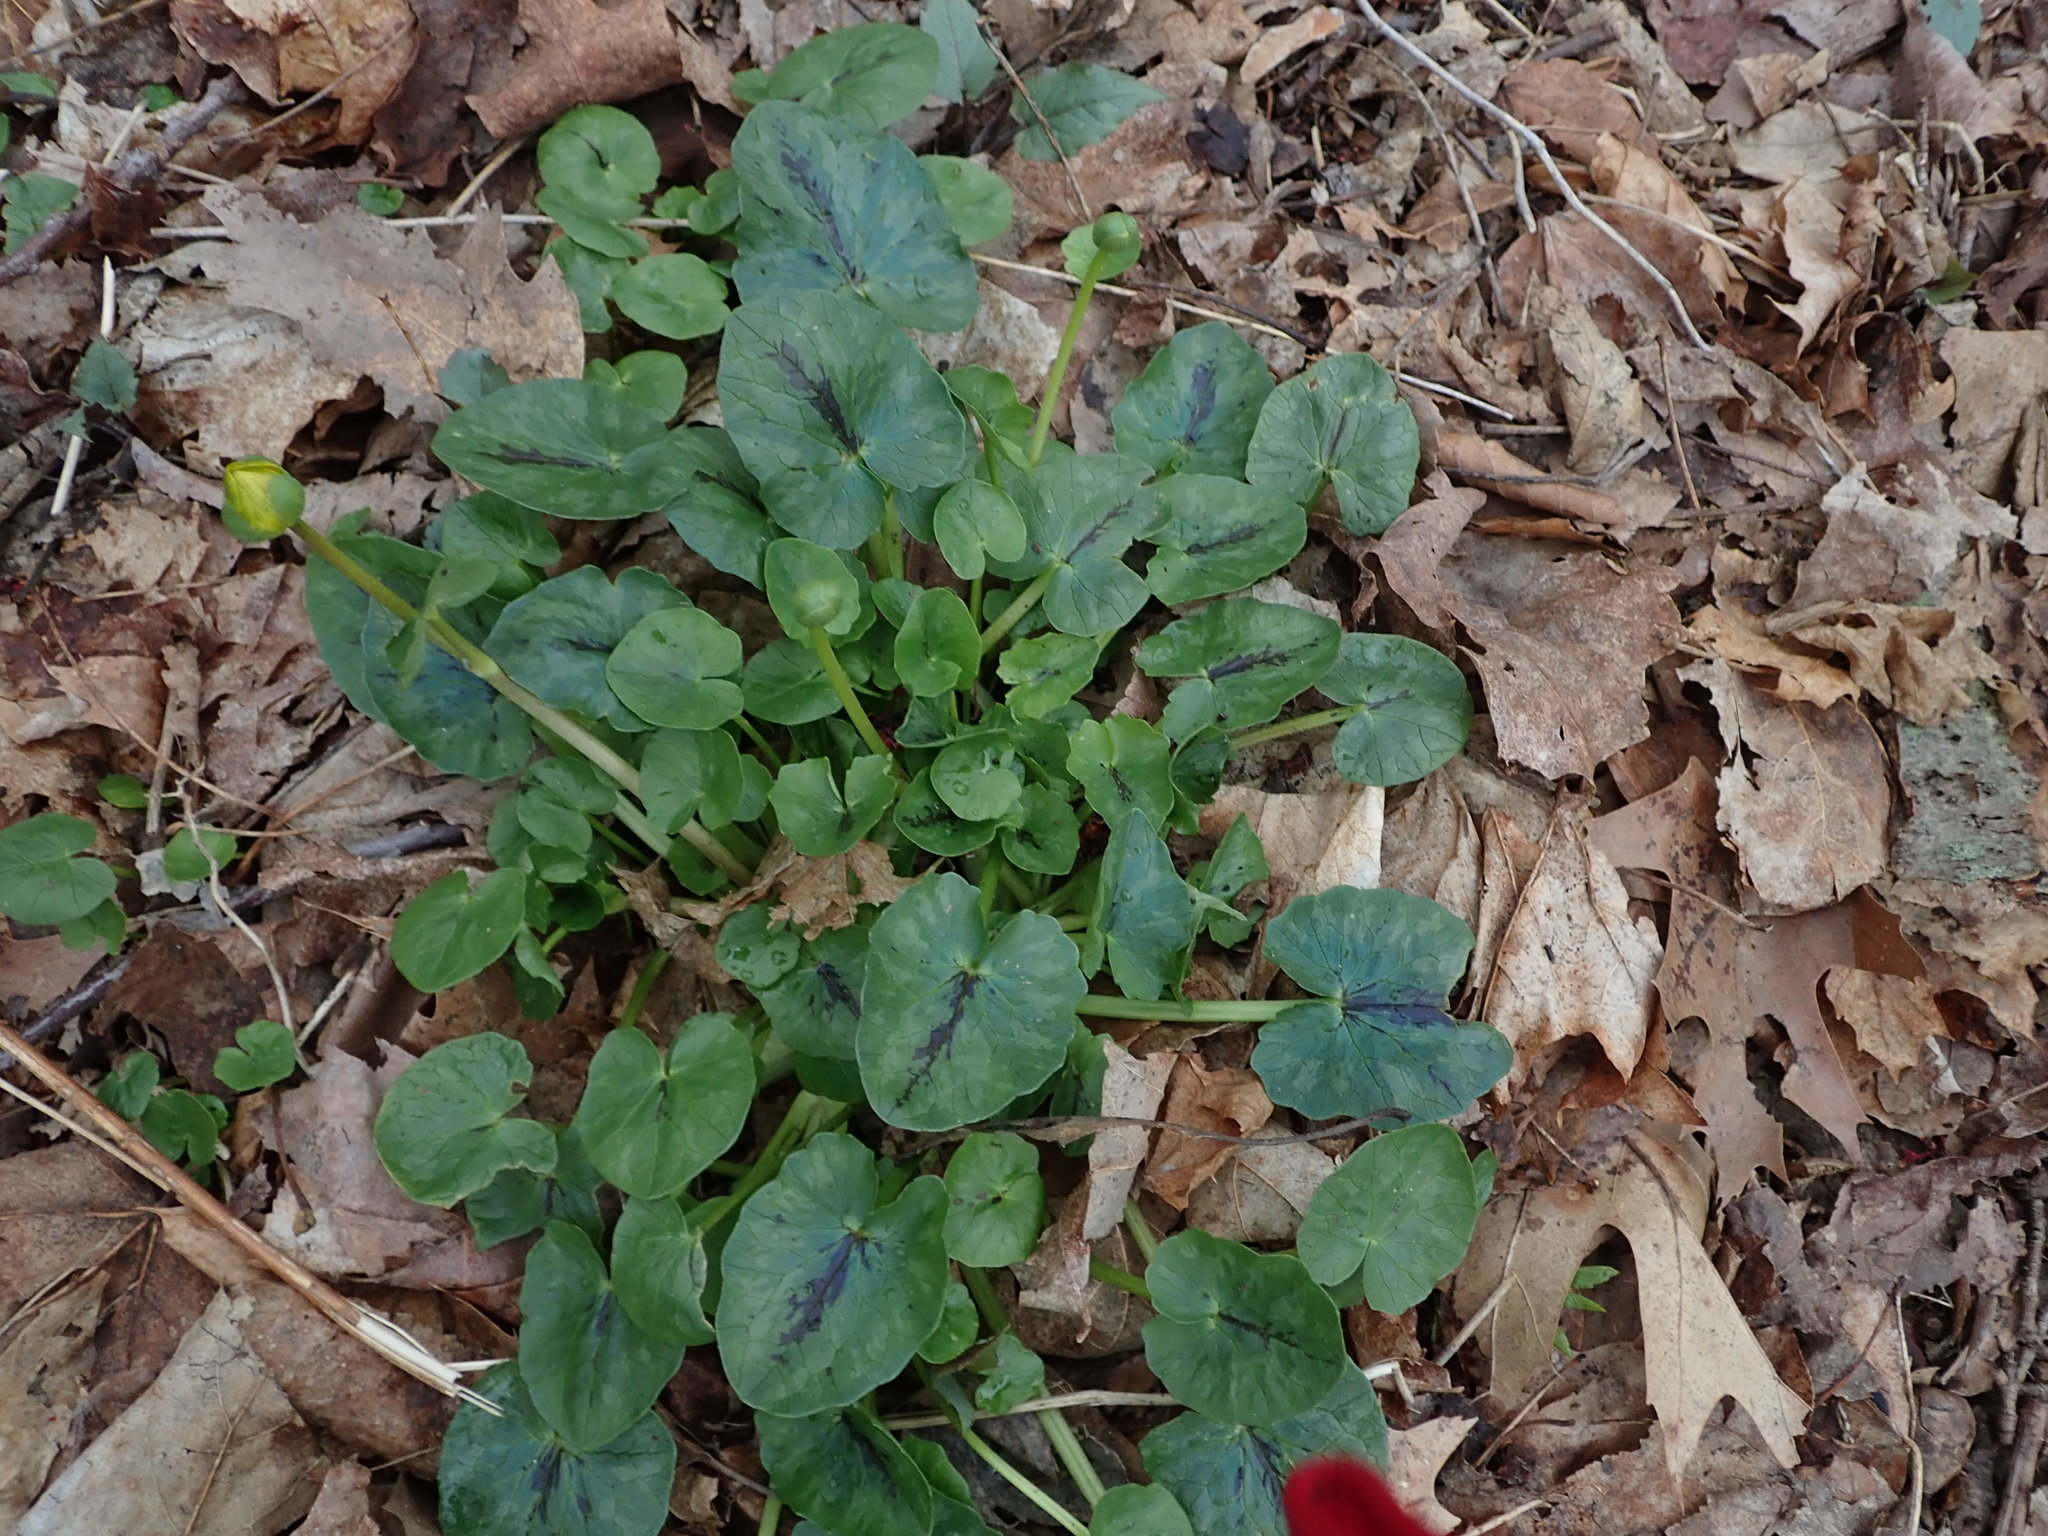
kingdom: Plantae
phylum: Tracheophyta
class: Magnoliopsida
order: Ranunculales
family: Ranunculaceae
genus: Ficaria
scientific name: Ficaria verna
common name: Lesser celandine
